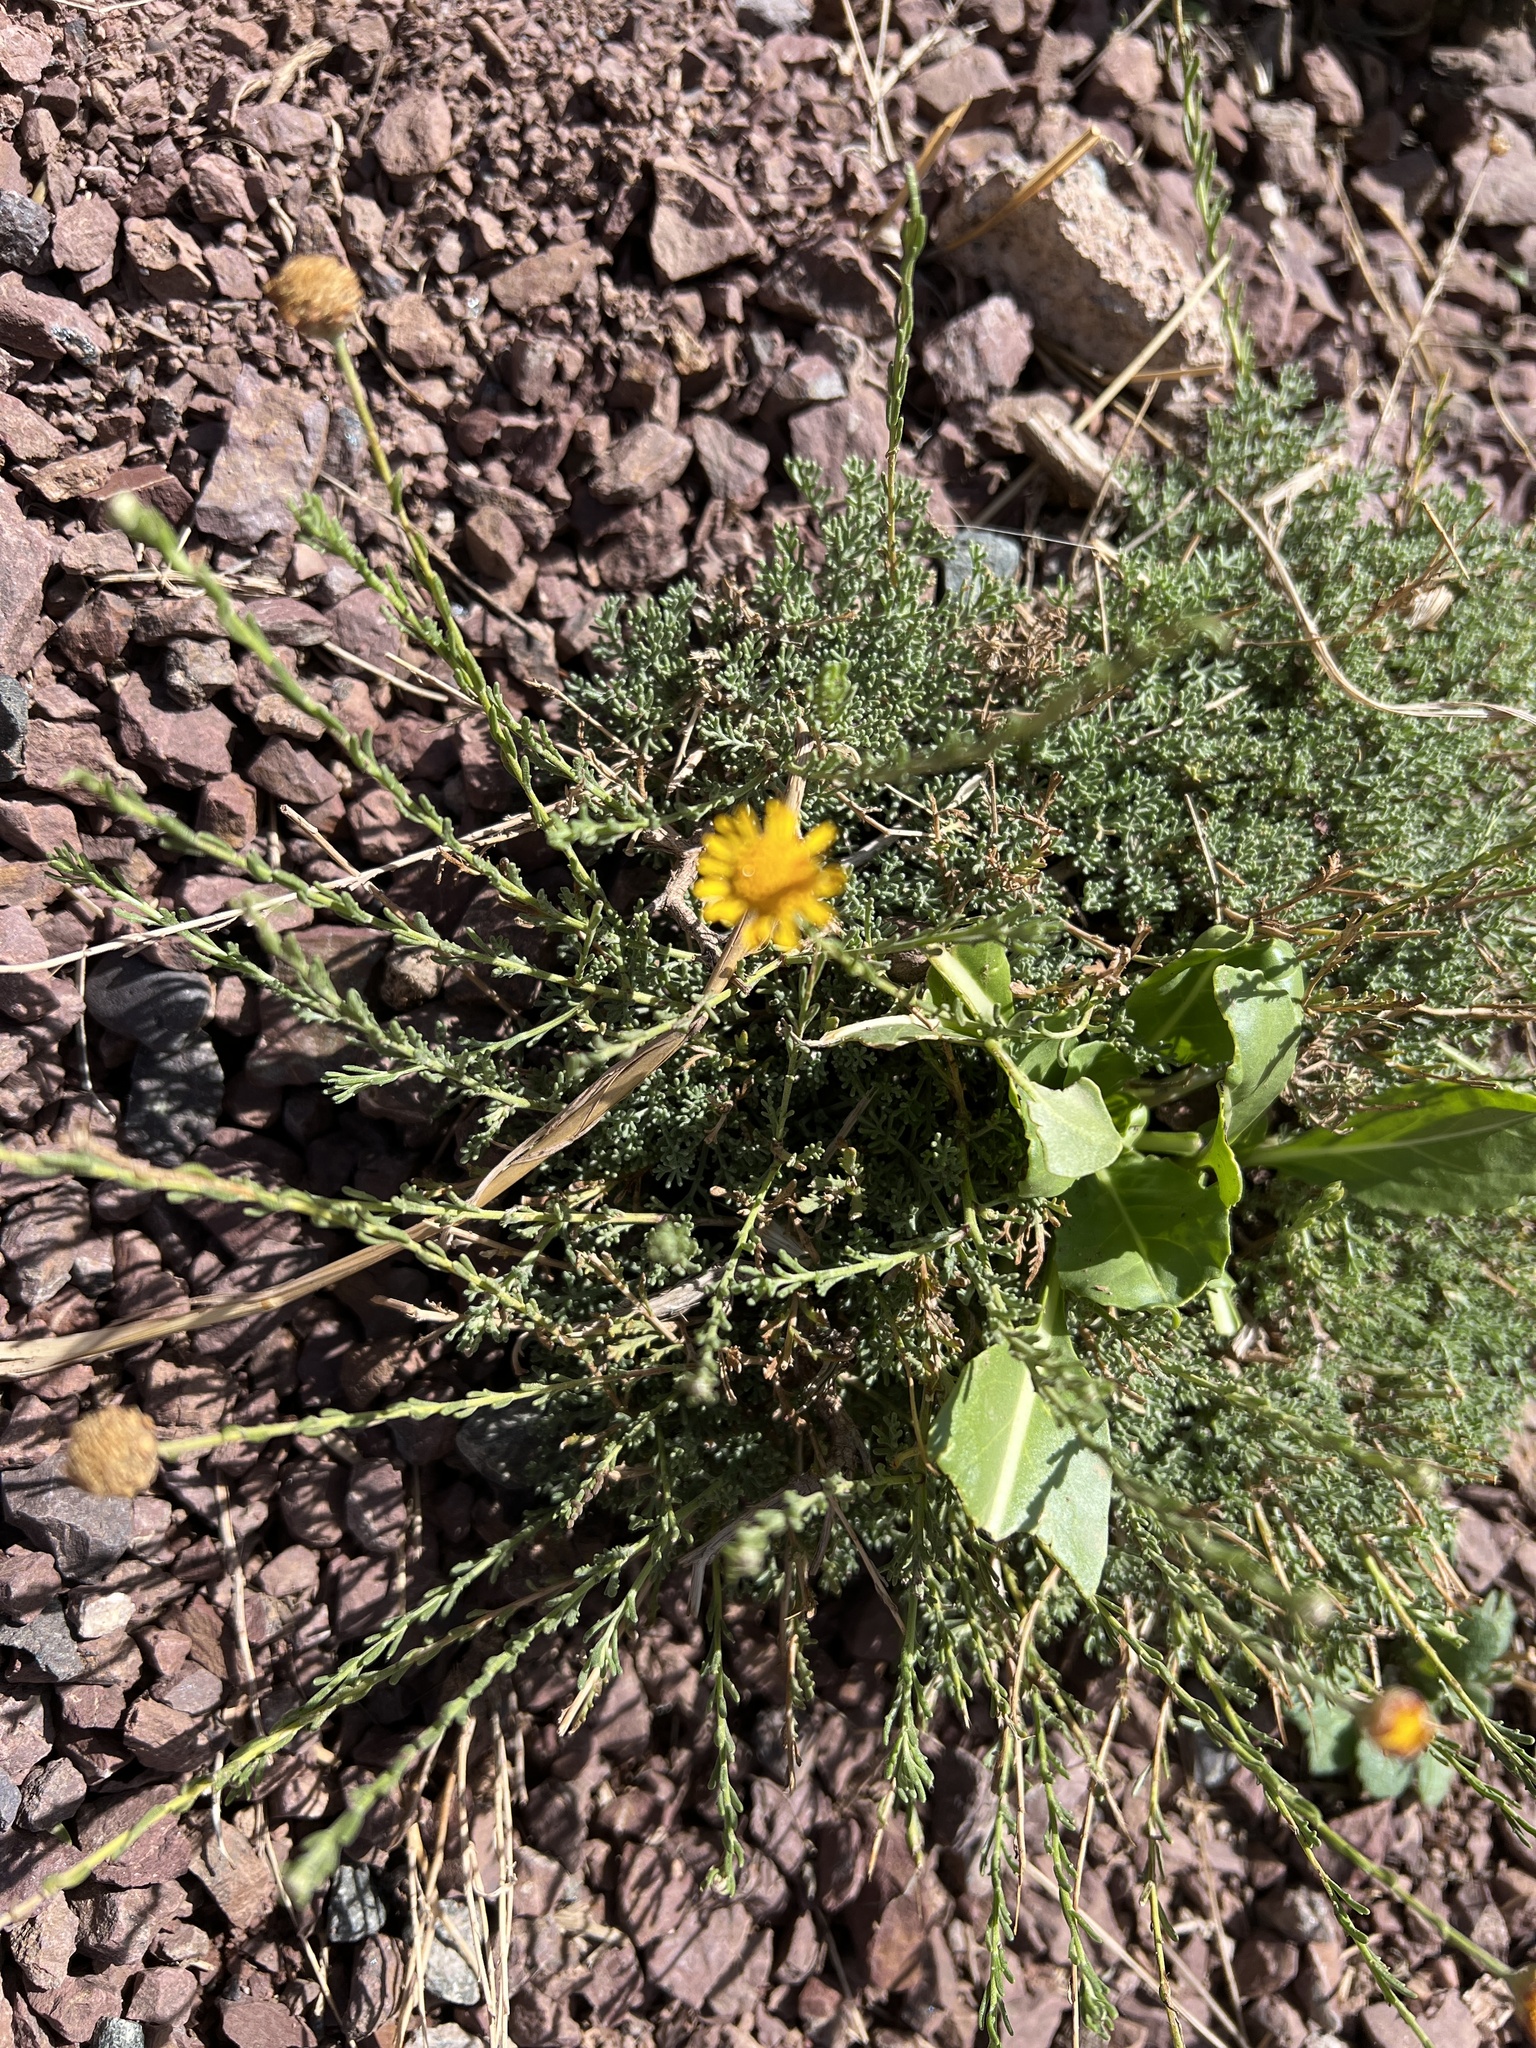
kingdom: Plantae
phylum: Tracheophyta
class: Magnoliopsida
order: Asterales
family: Asteraceae
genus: Cladanthus
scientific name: Cladanthus scariosus
